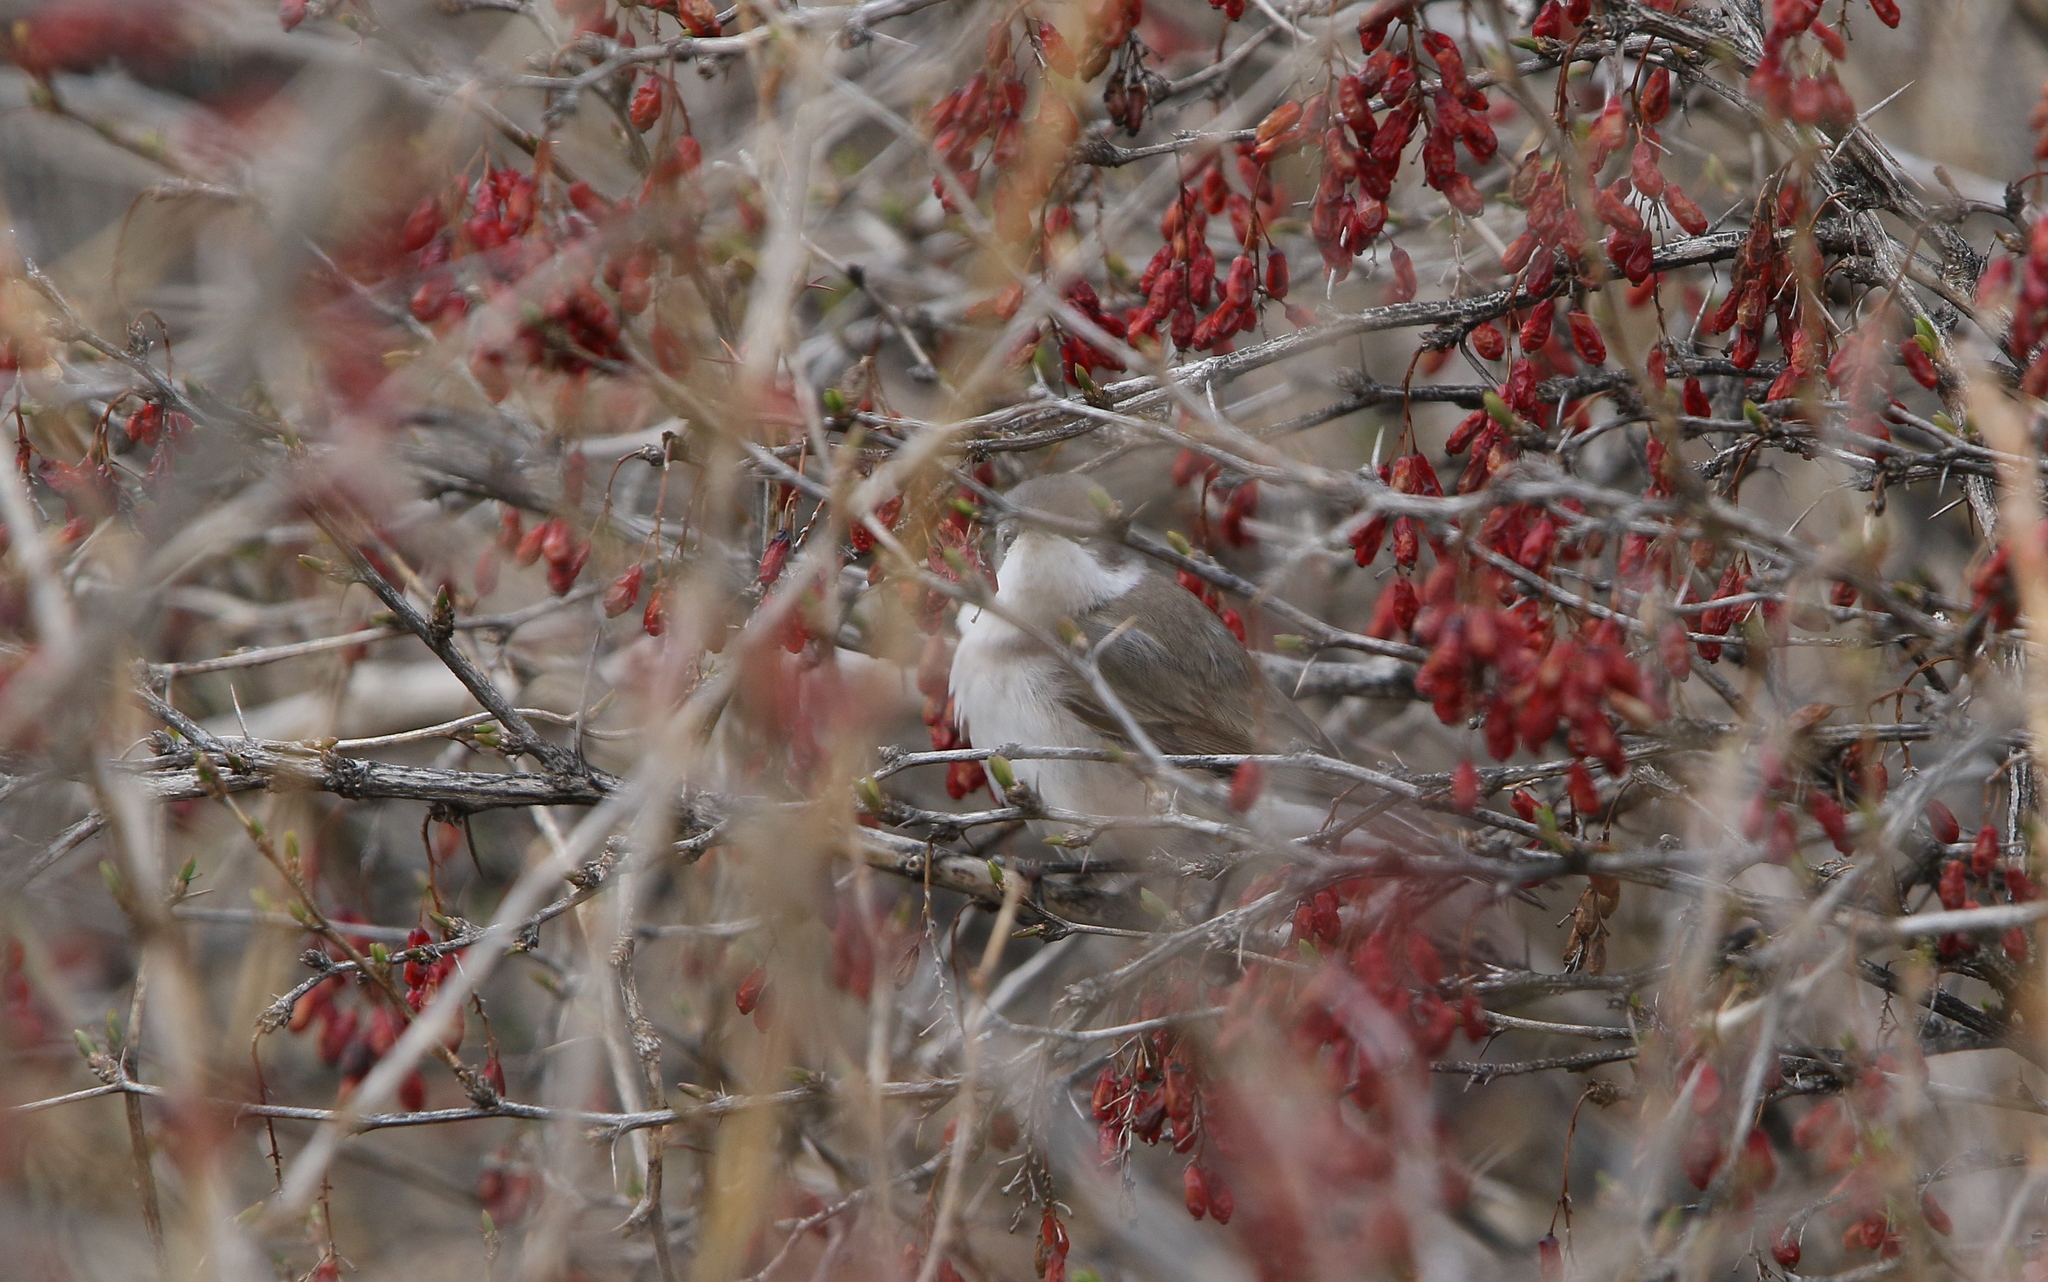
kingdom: Animalia
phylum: Chordata
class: Aves
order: Passeriformes
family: Sylviidae
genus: Sylvia
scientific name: Sylvia curruca
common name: Lesser whitethroat
